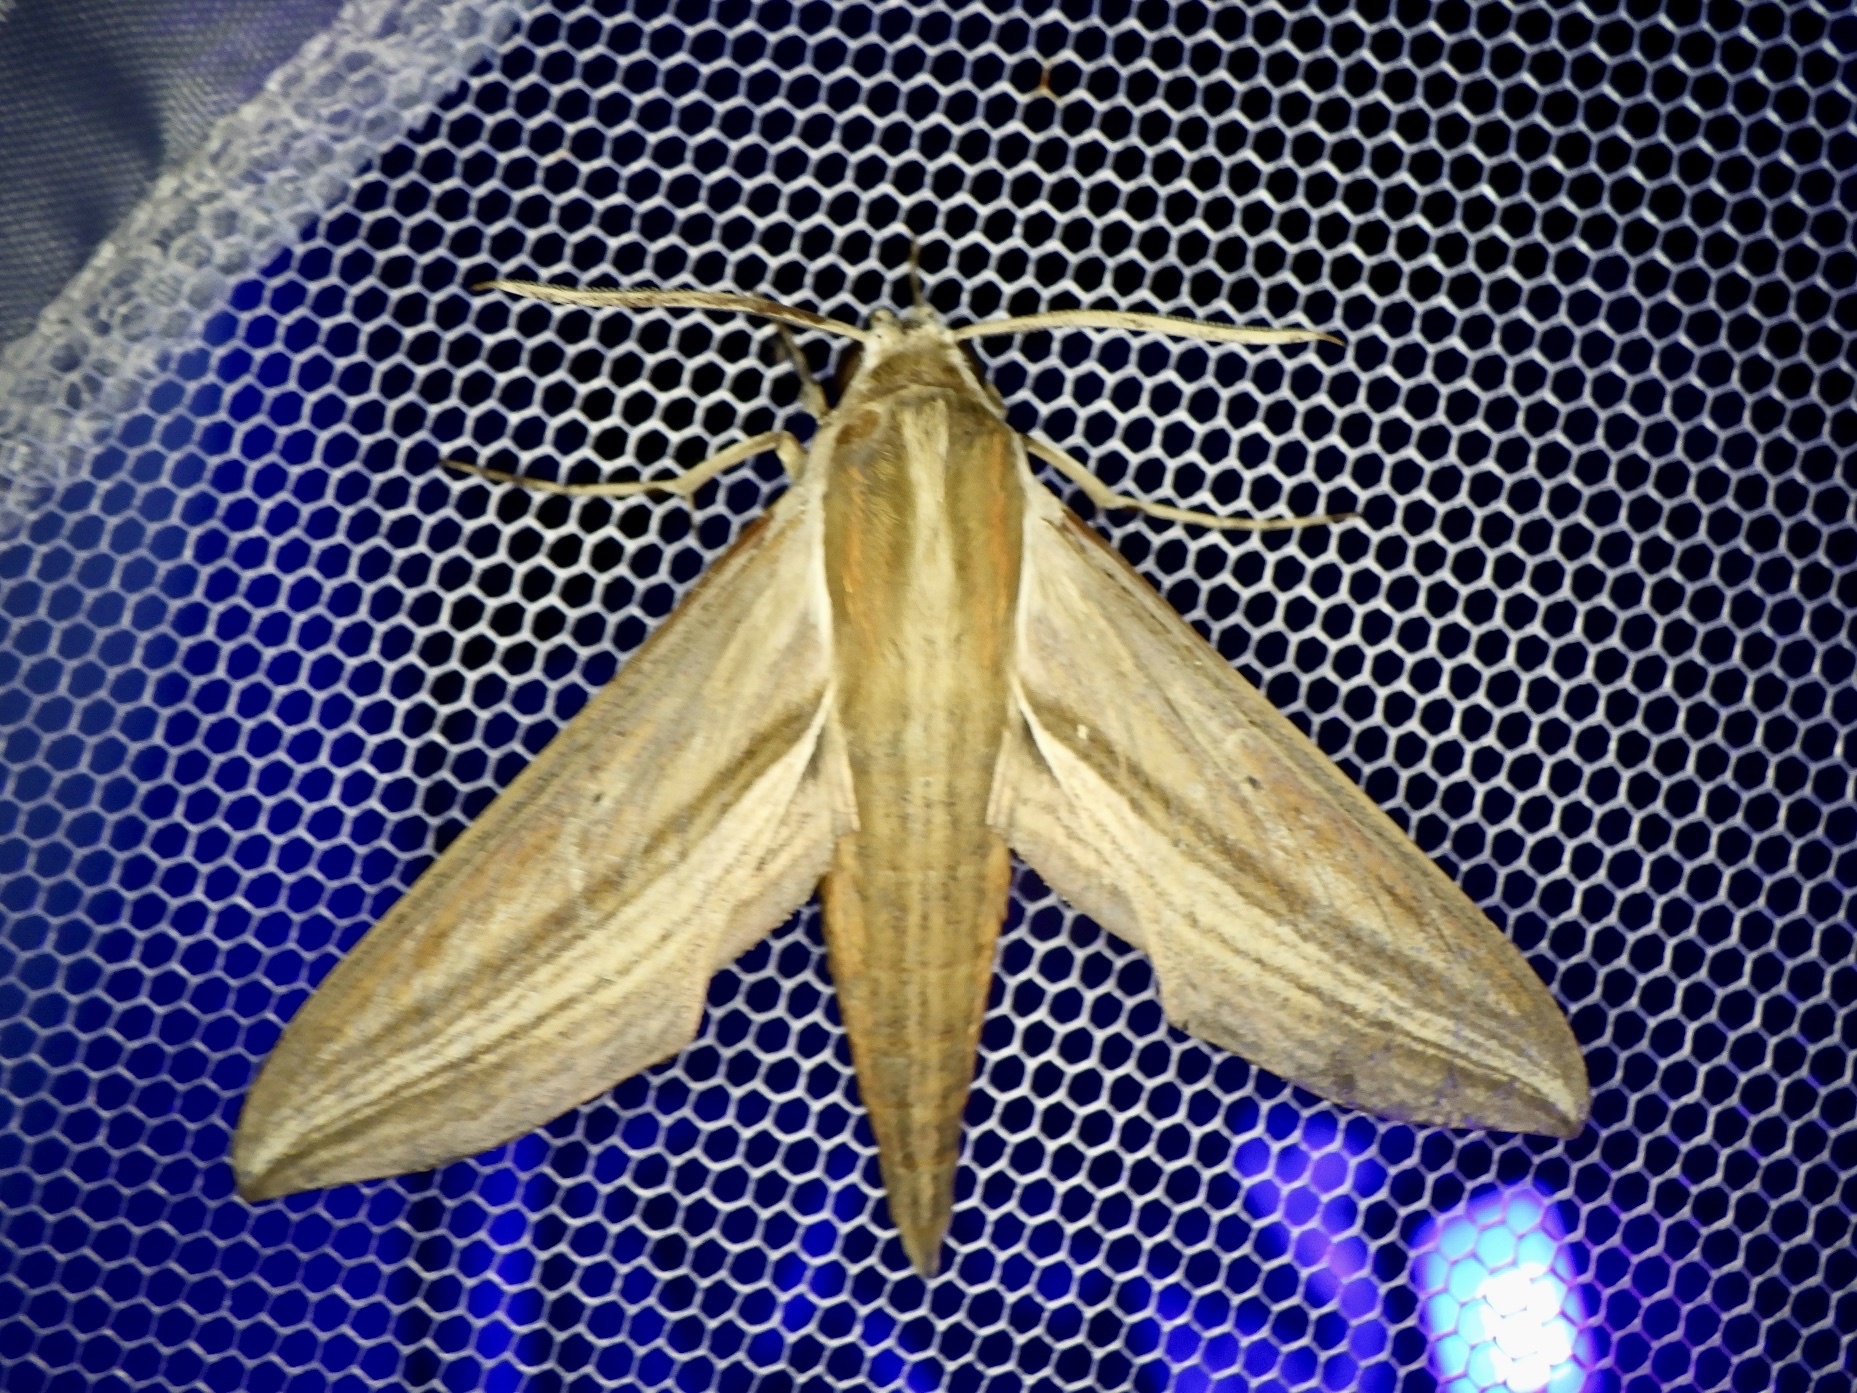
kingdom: Animalia
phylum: Arthropoda
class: Insecta
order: Lepidoptera
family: Sphingidae
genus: Theretra
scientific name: Theretra japonica
